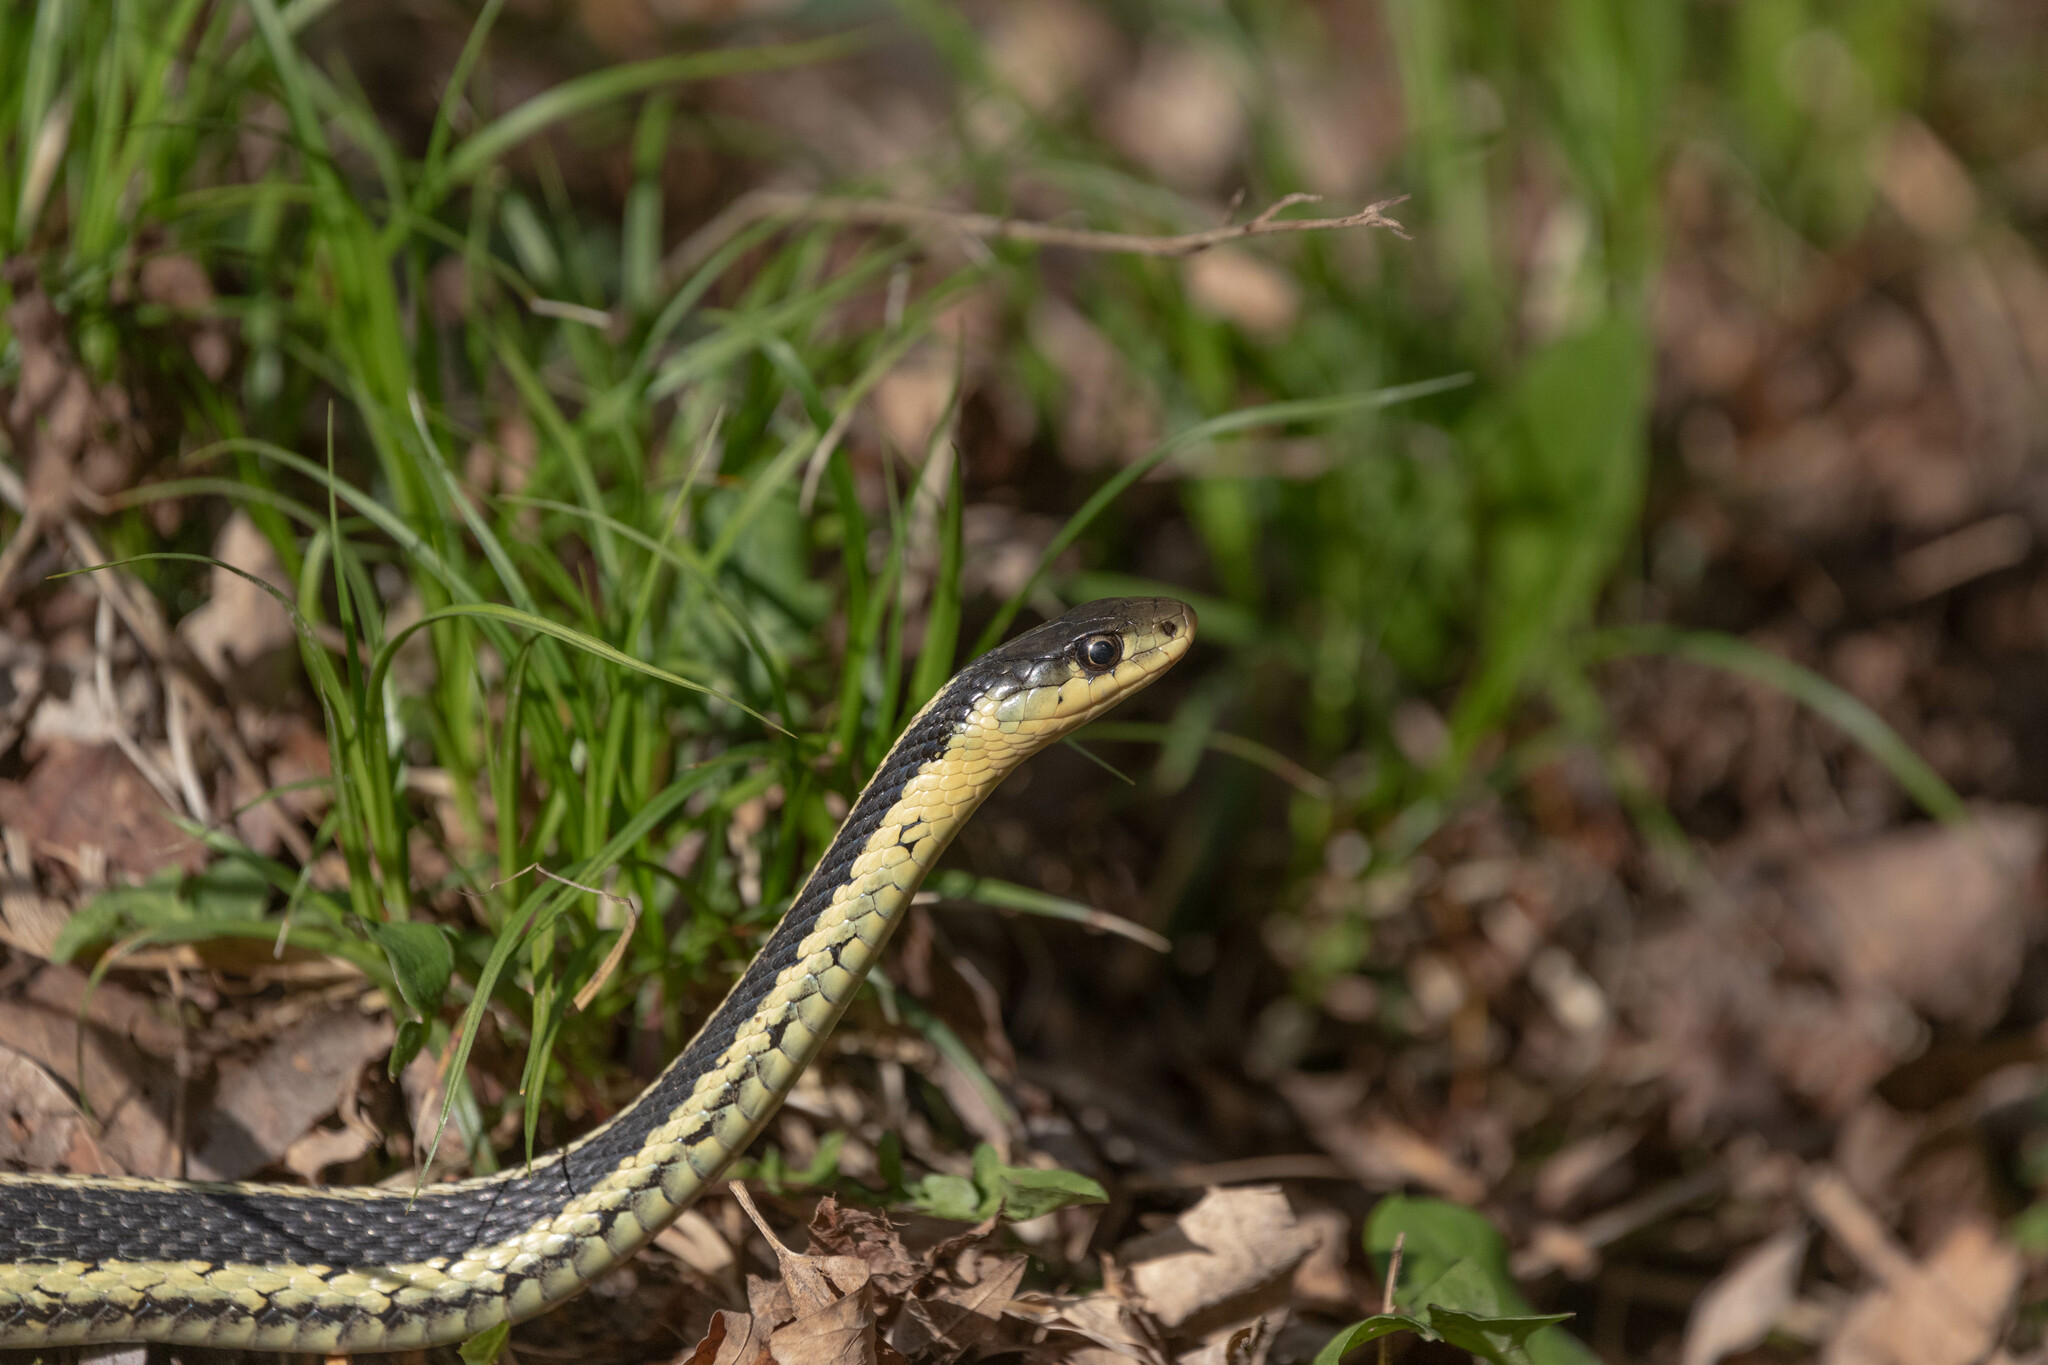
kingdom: Animalia
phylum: Chordata
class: Squamata
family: Colubridae
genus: Thamnophis
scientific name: Thamnophis sirtalis
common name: Common garter snake
